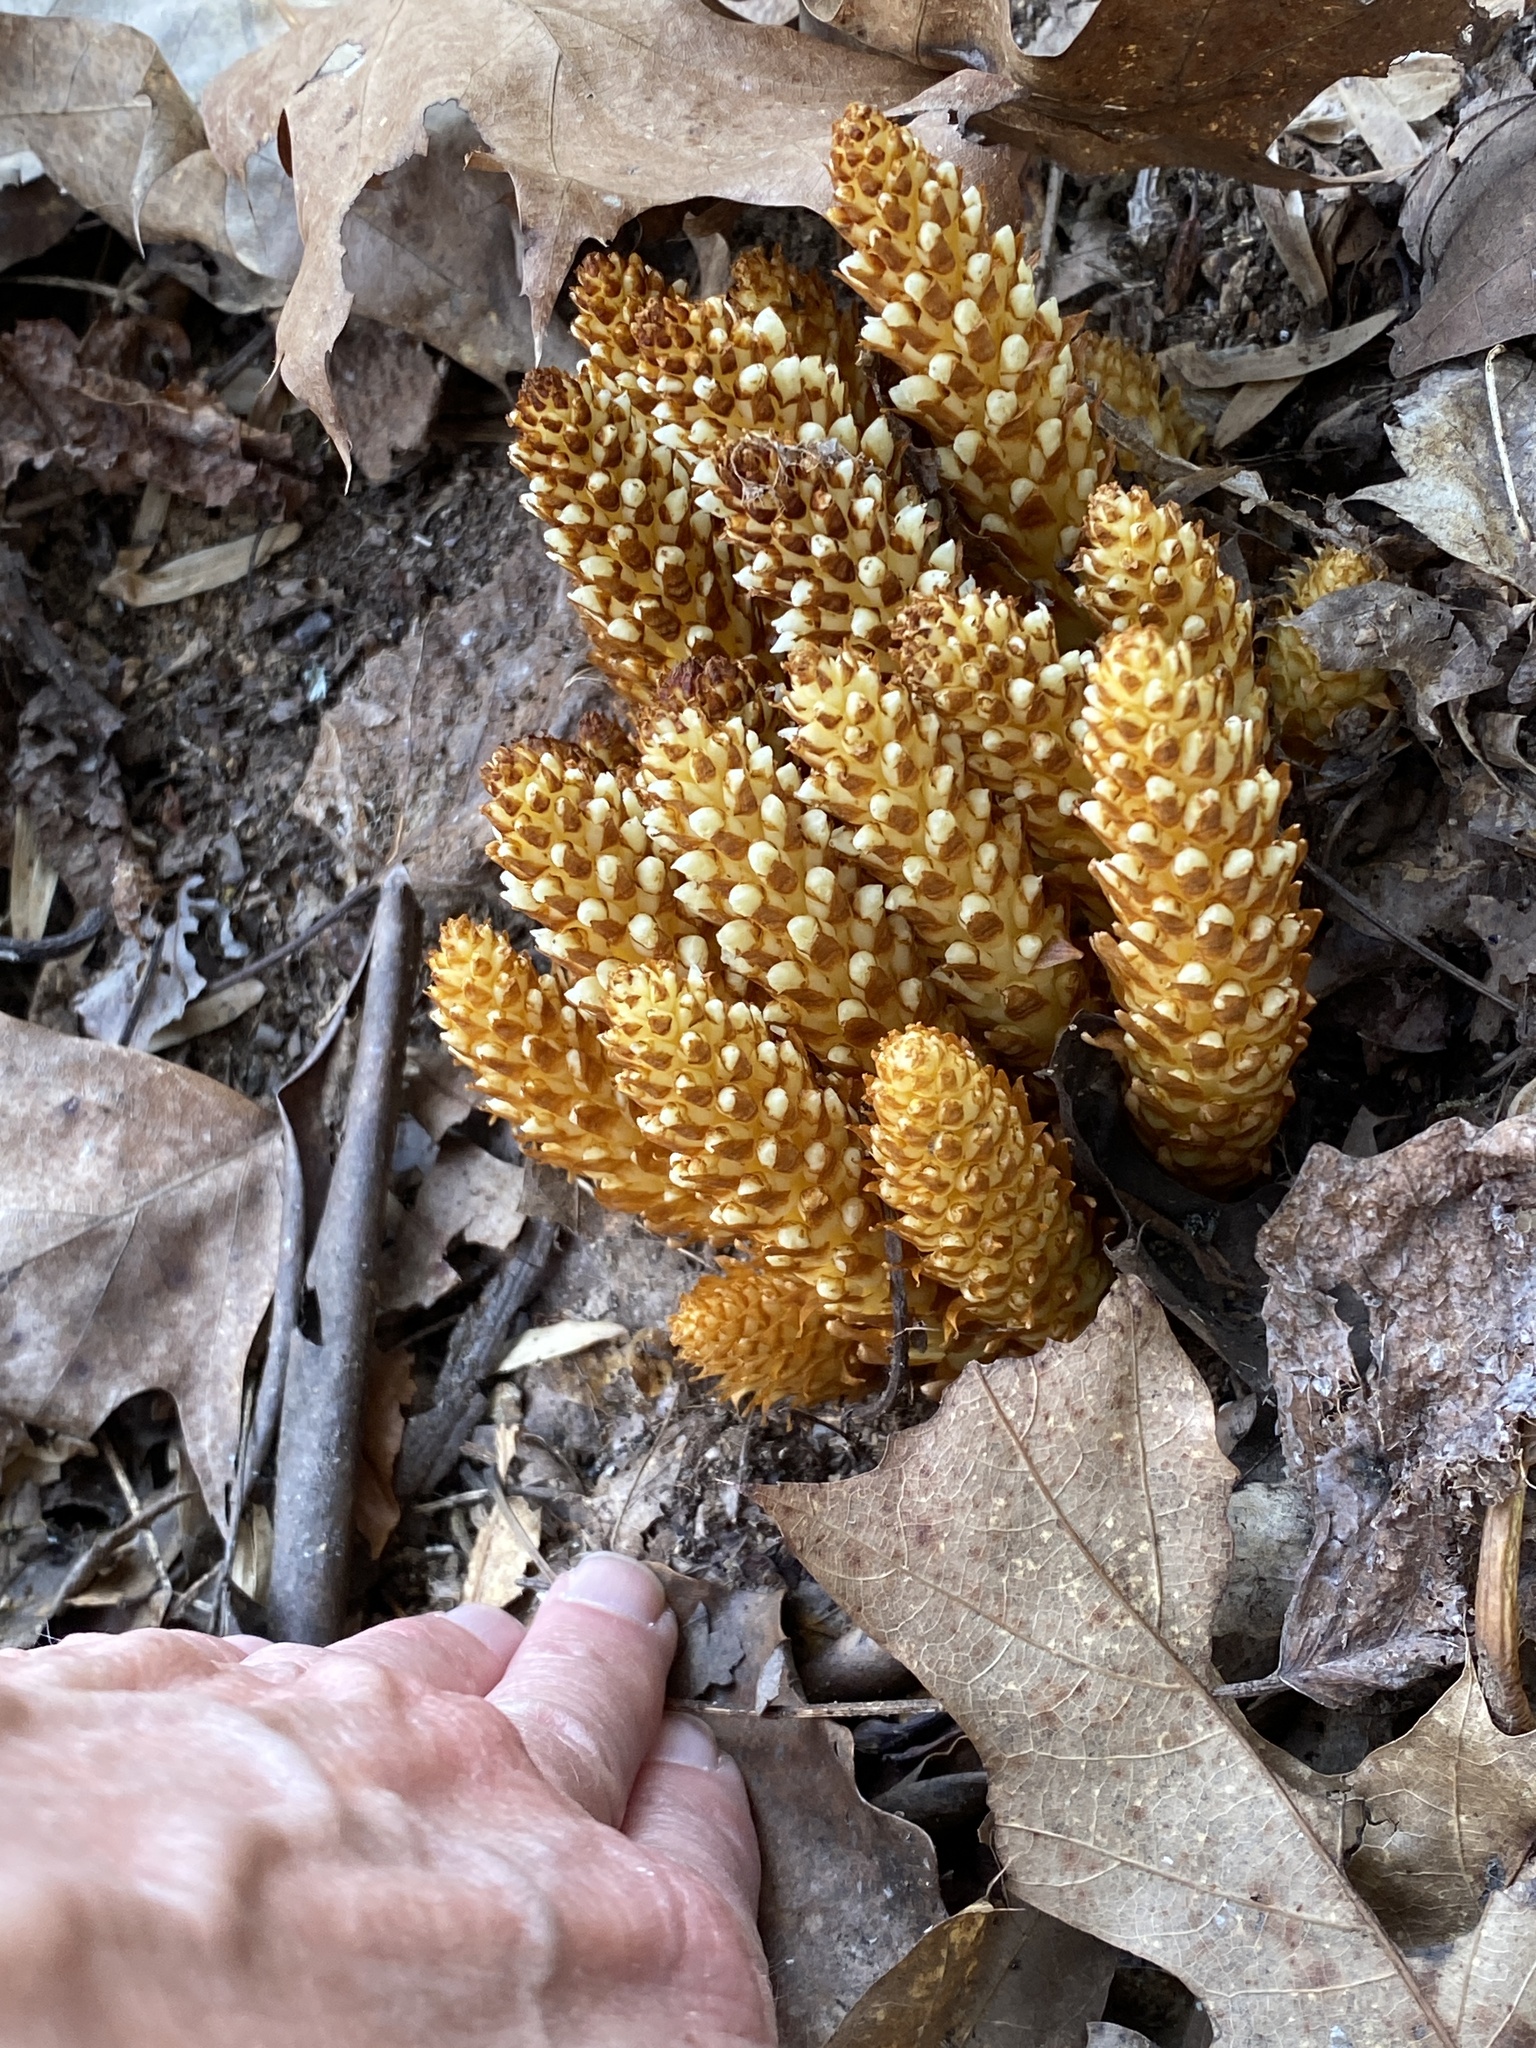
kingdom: Plantae
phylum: Tracheophyta
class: Magnoliopsida
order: Lamiales
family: Orobanchaceae
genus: Conopholis
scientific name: Conopholis americana
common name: American cancer-root
